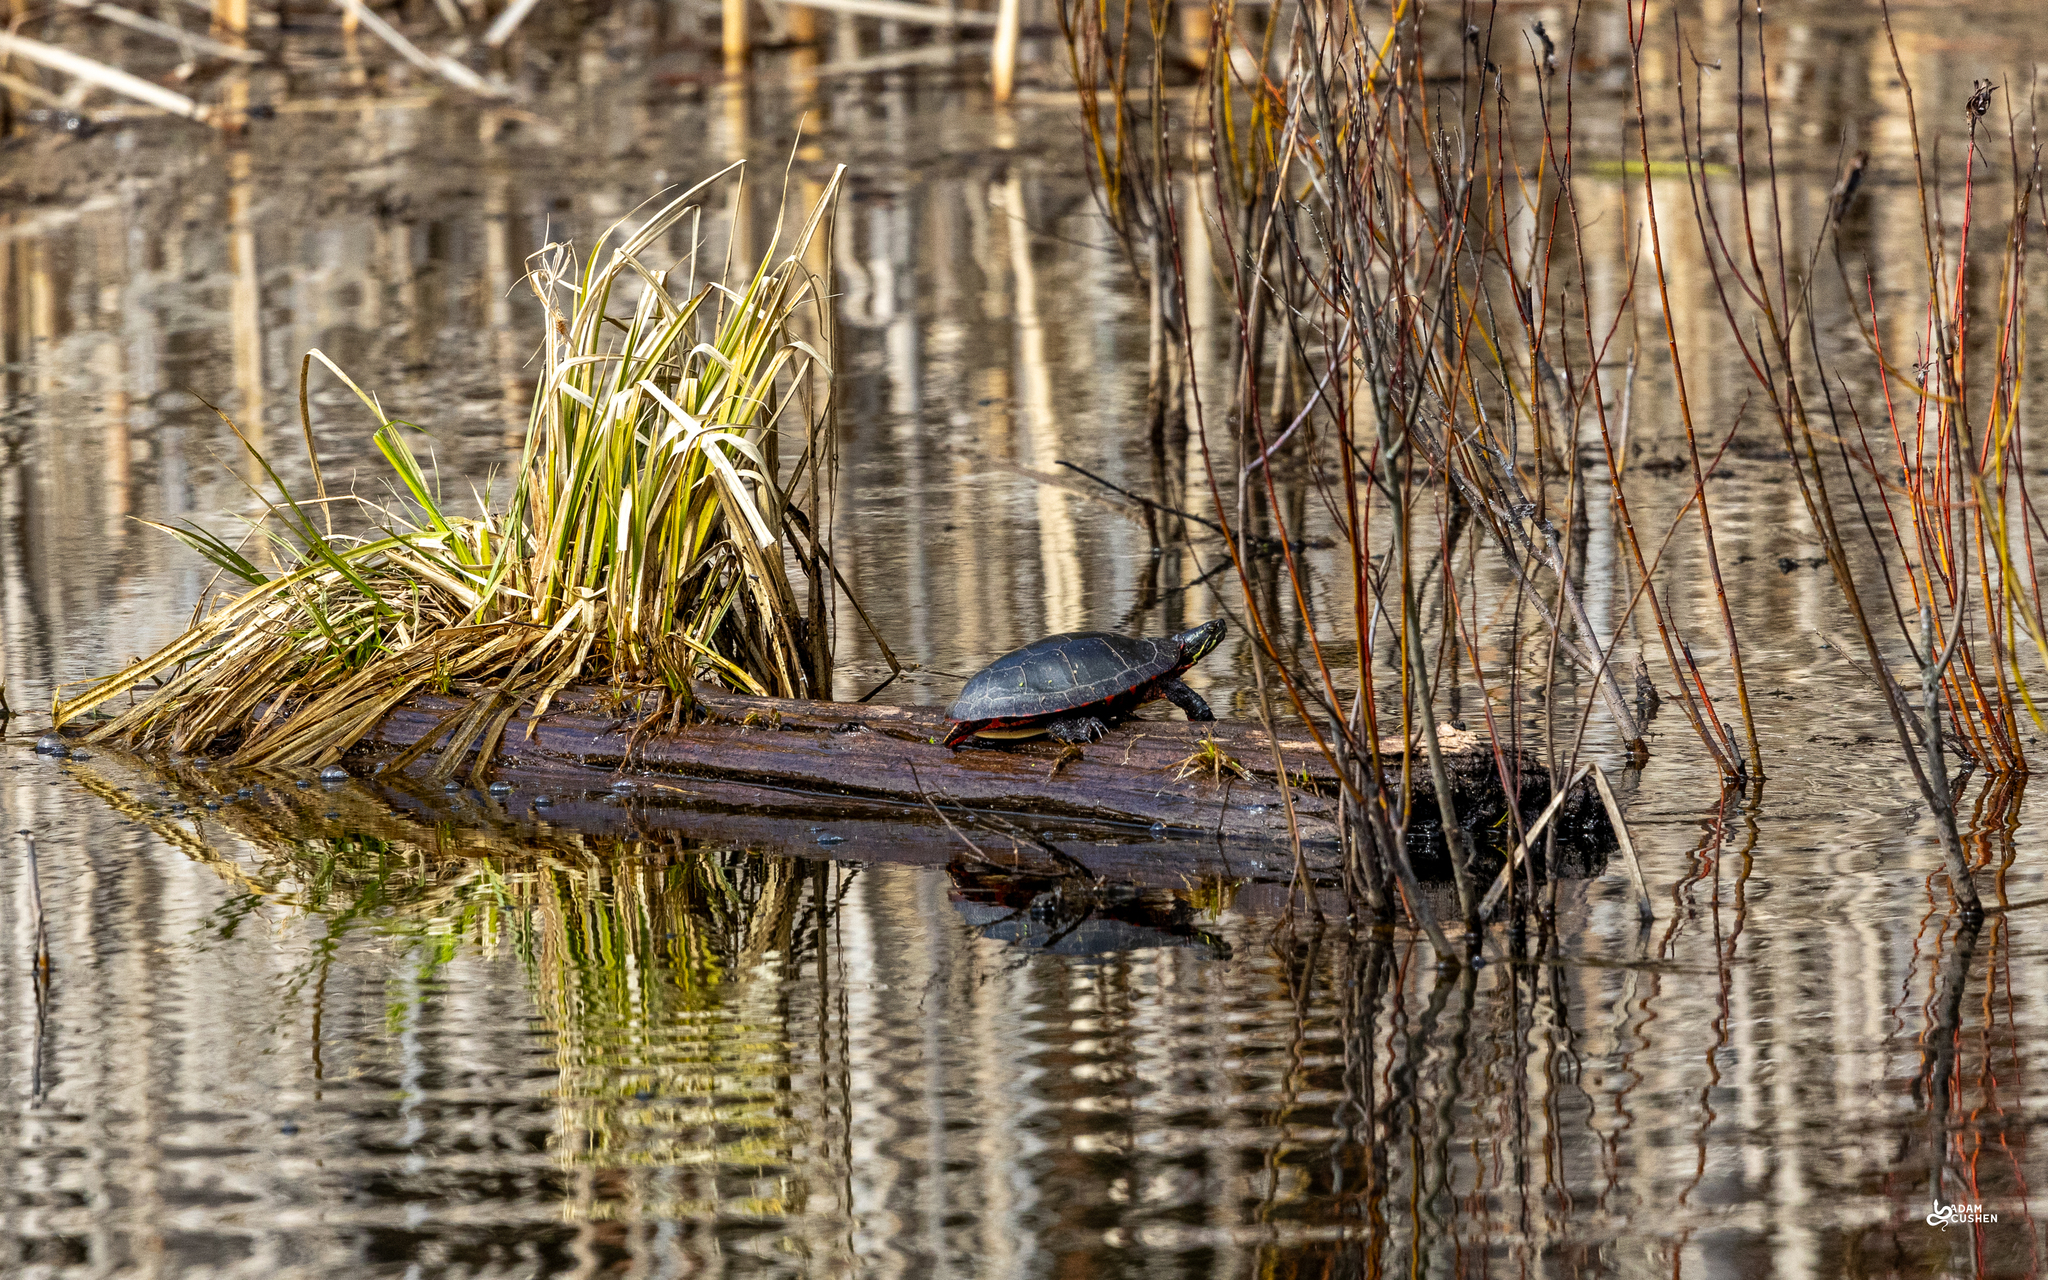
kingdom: Animalia
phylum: Chordata
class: Testudines
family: Emydidae
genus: Chrysemys
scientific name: Chrysemys picta
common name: Painted turtle
